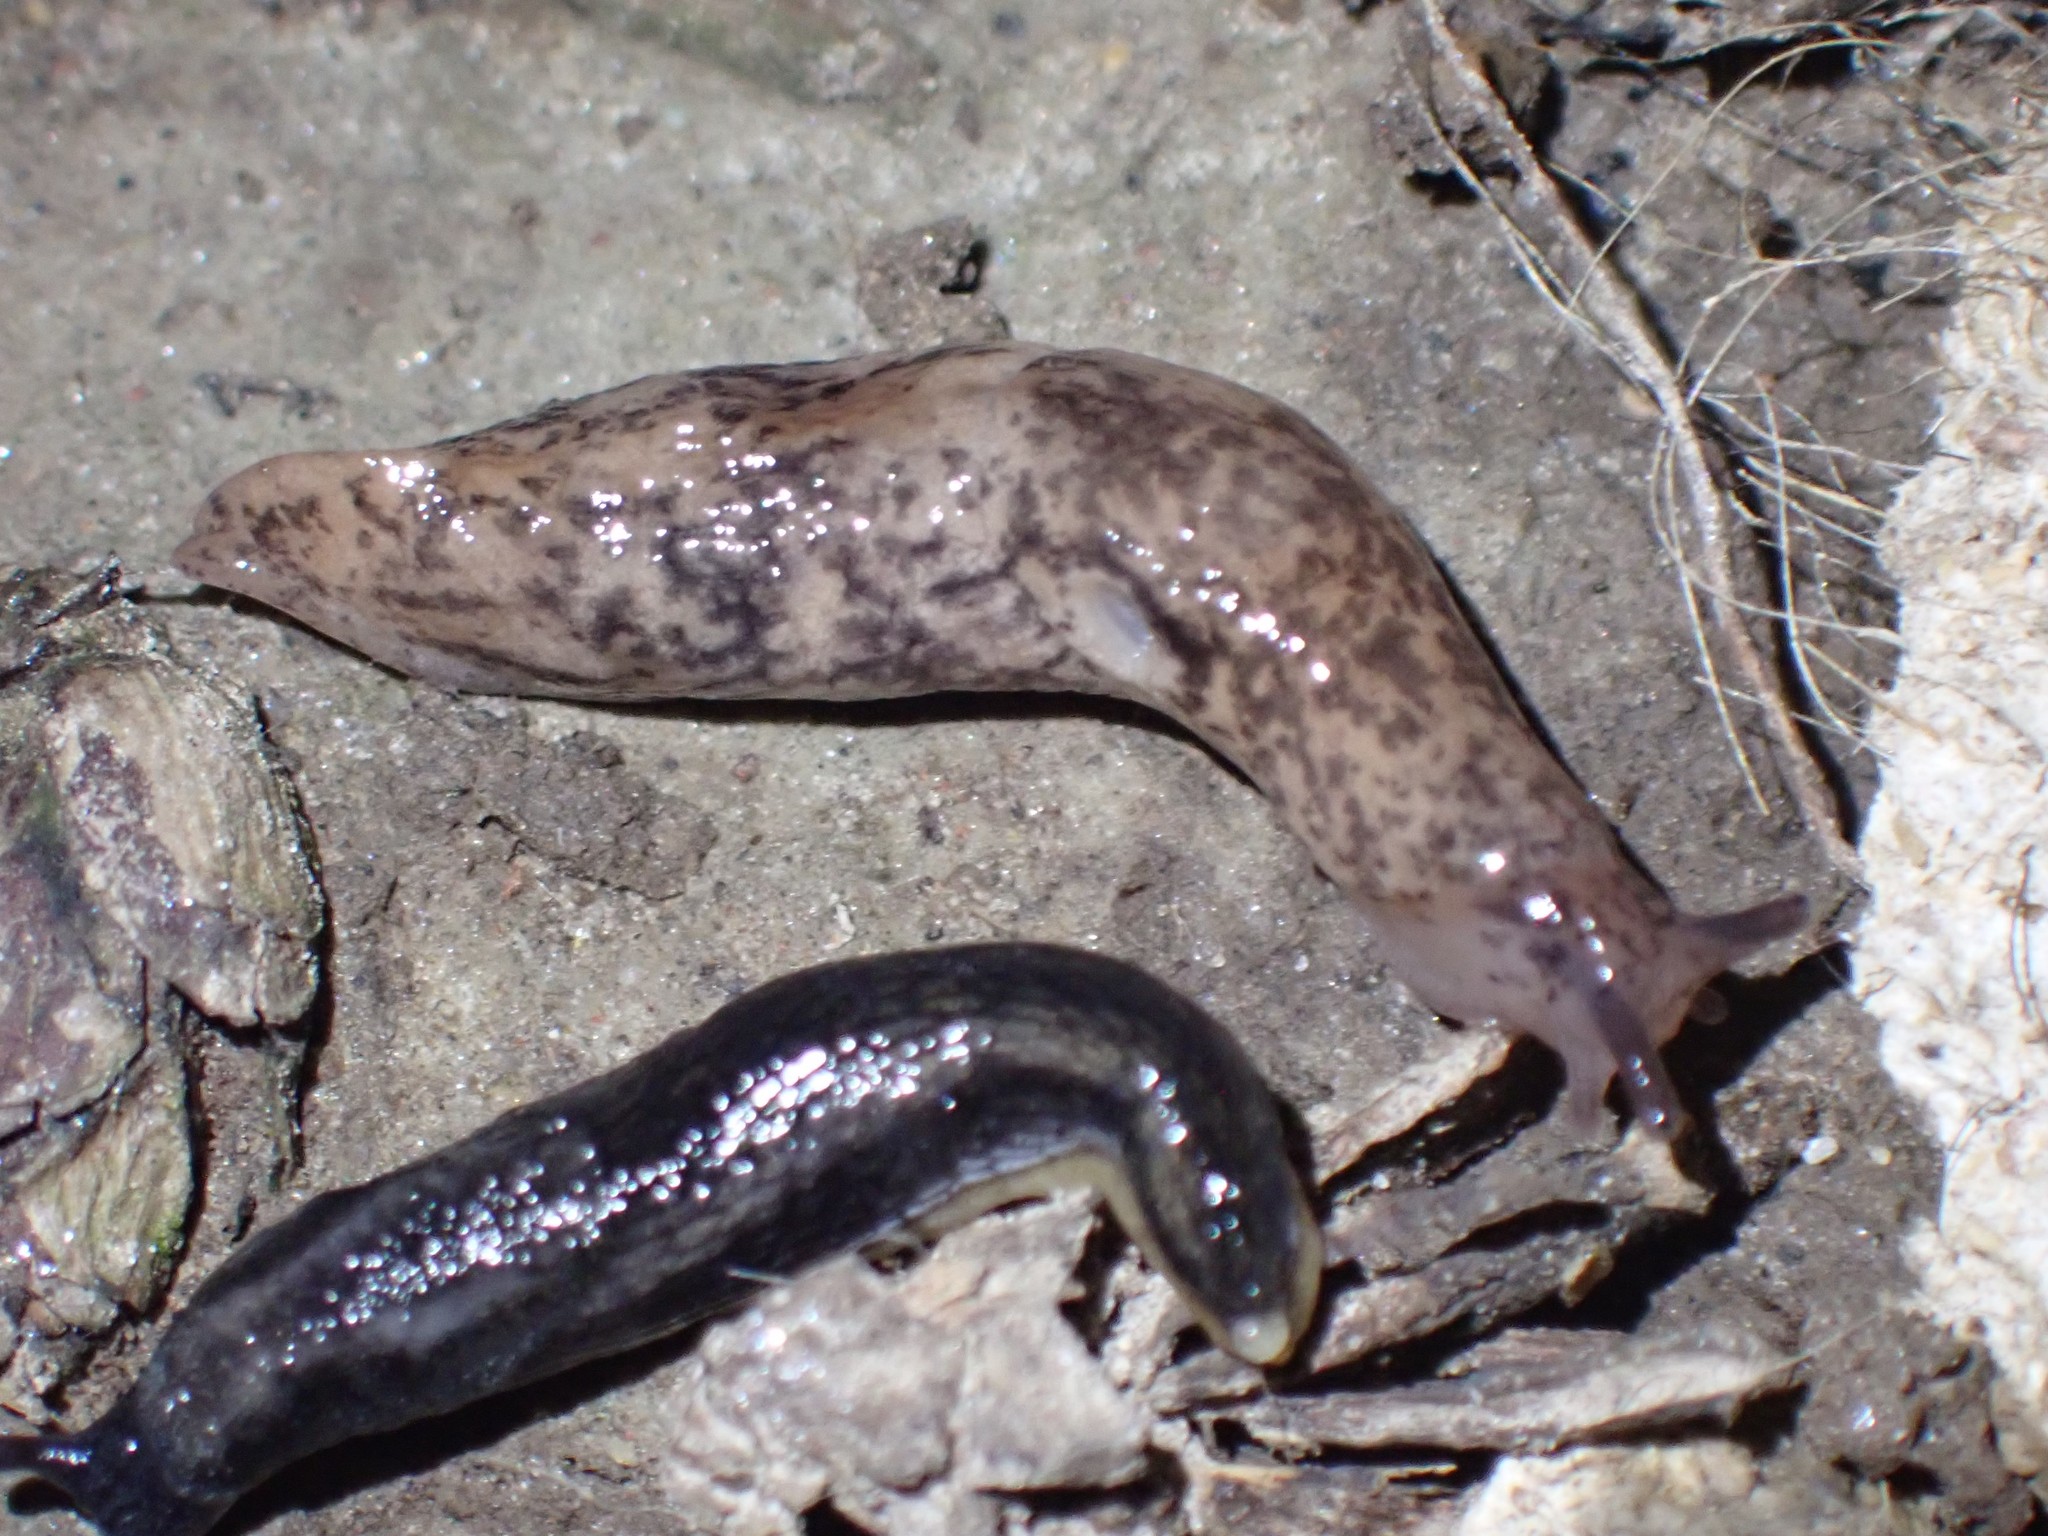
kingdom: Animalia
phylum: Mollusca
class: Gastropoda
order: Stylommatophora
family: Agriolimacidae
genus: Deroceras
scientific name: Deroceras reticulatum
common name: Gray field slug
